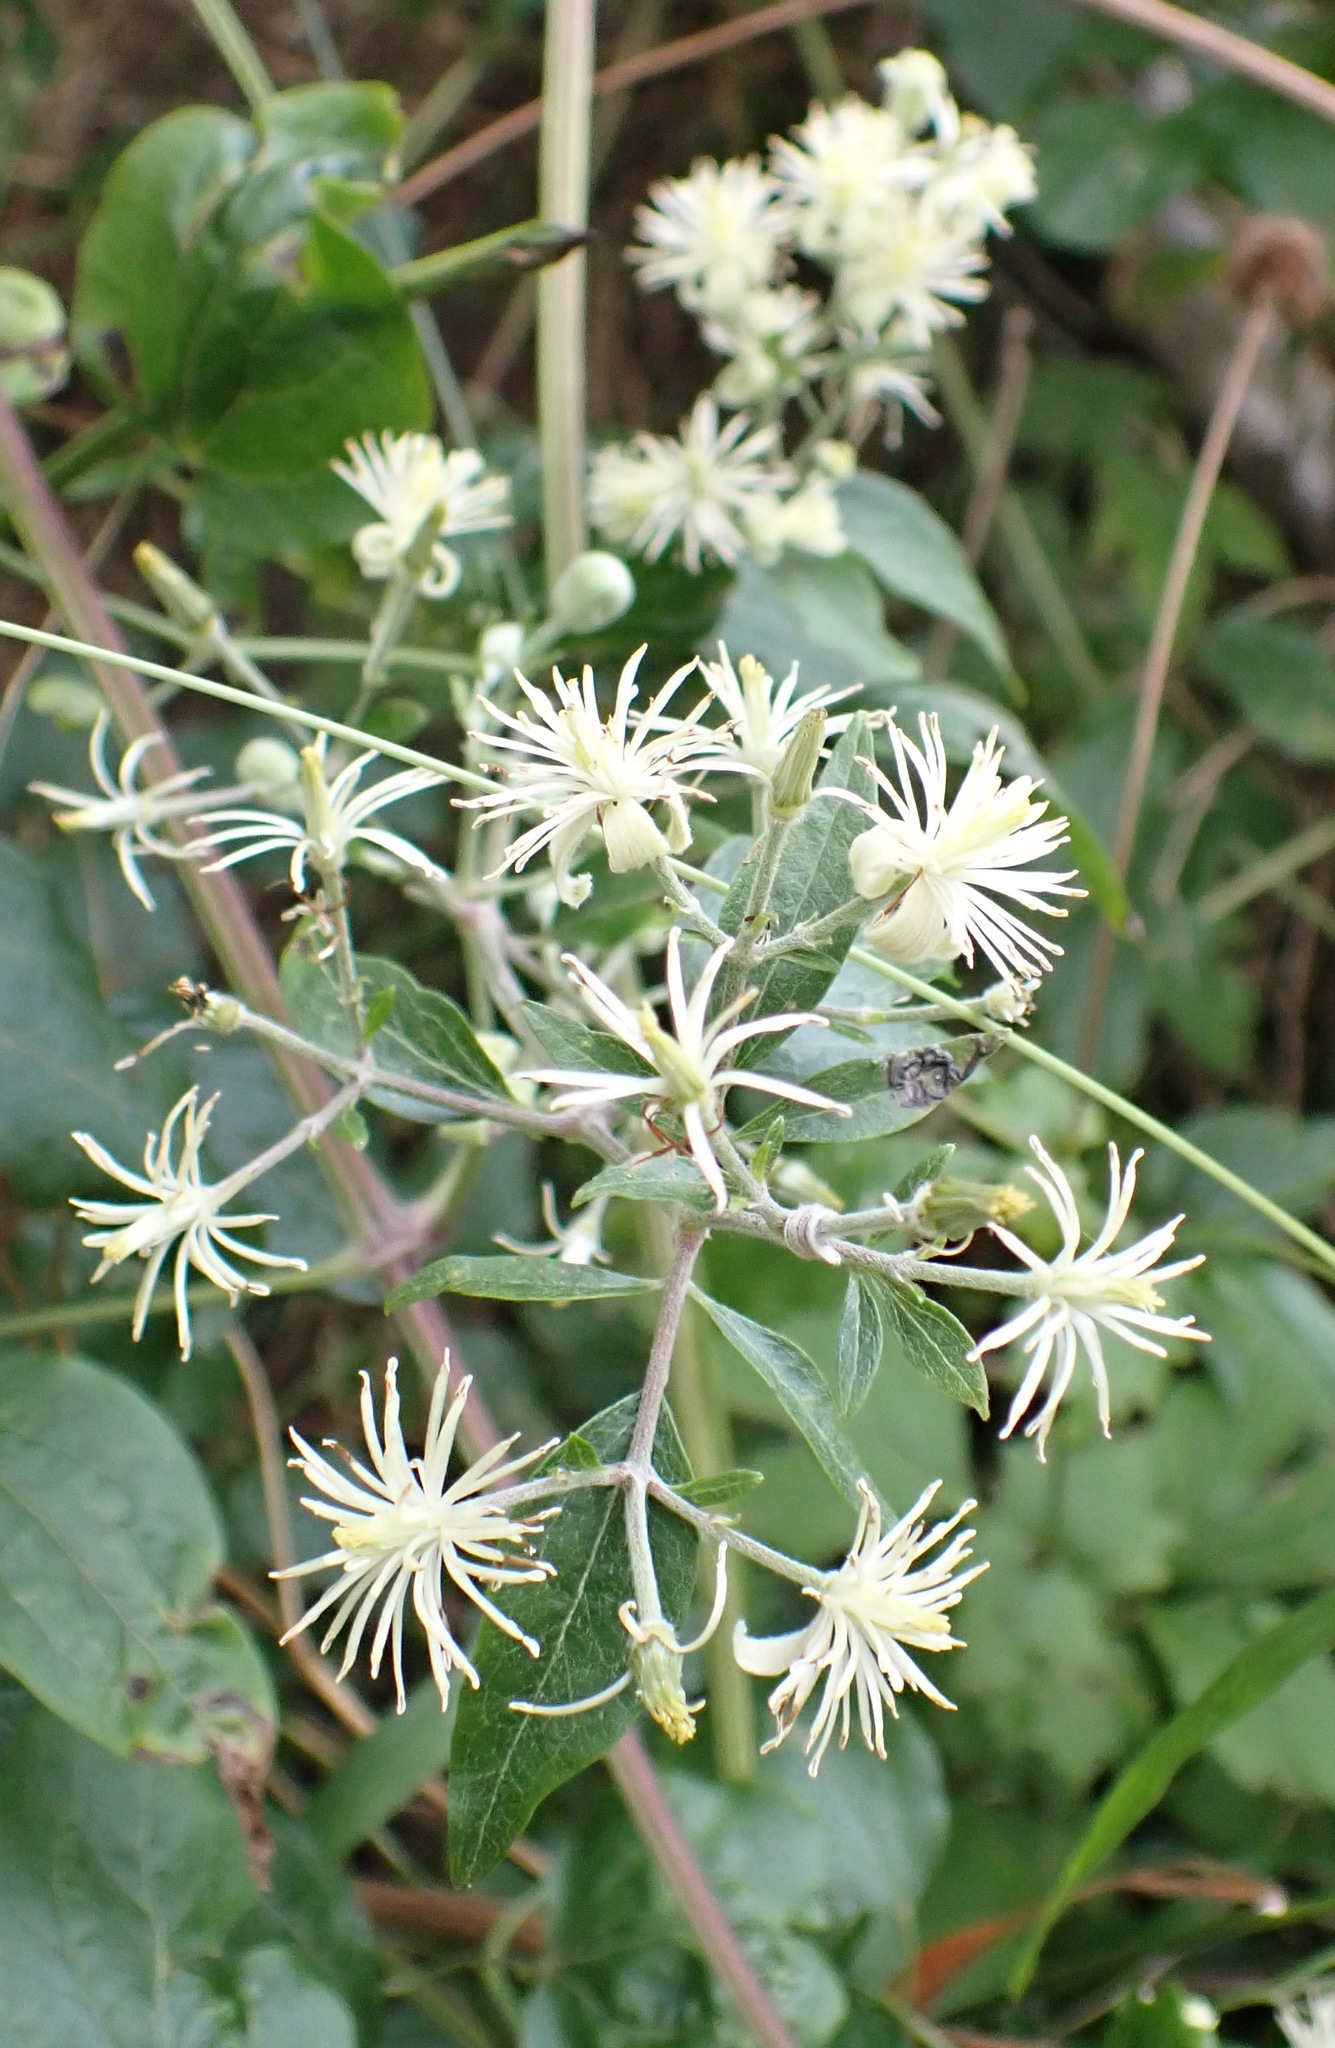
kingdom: Plantae
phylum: Tracheophyta
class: Magnoliopsida
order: Ranunculales
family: Ranunculaceae
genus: Clematis
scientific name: Clematis vitalba
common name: Evergreen clematis
